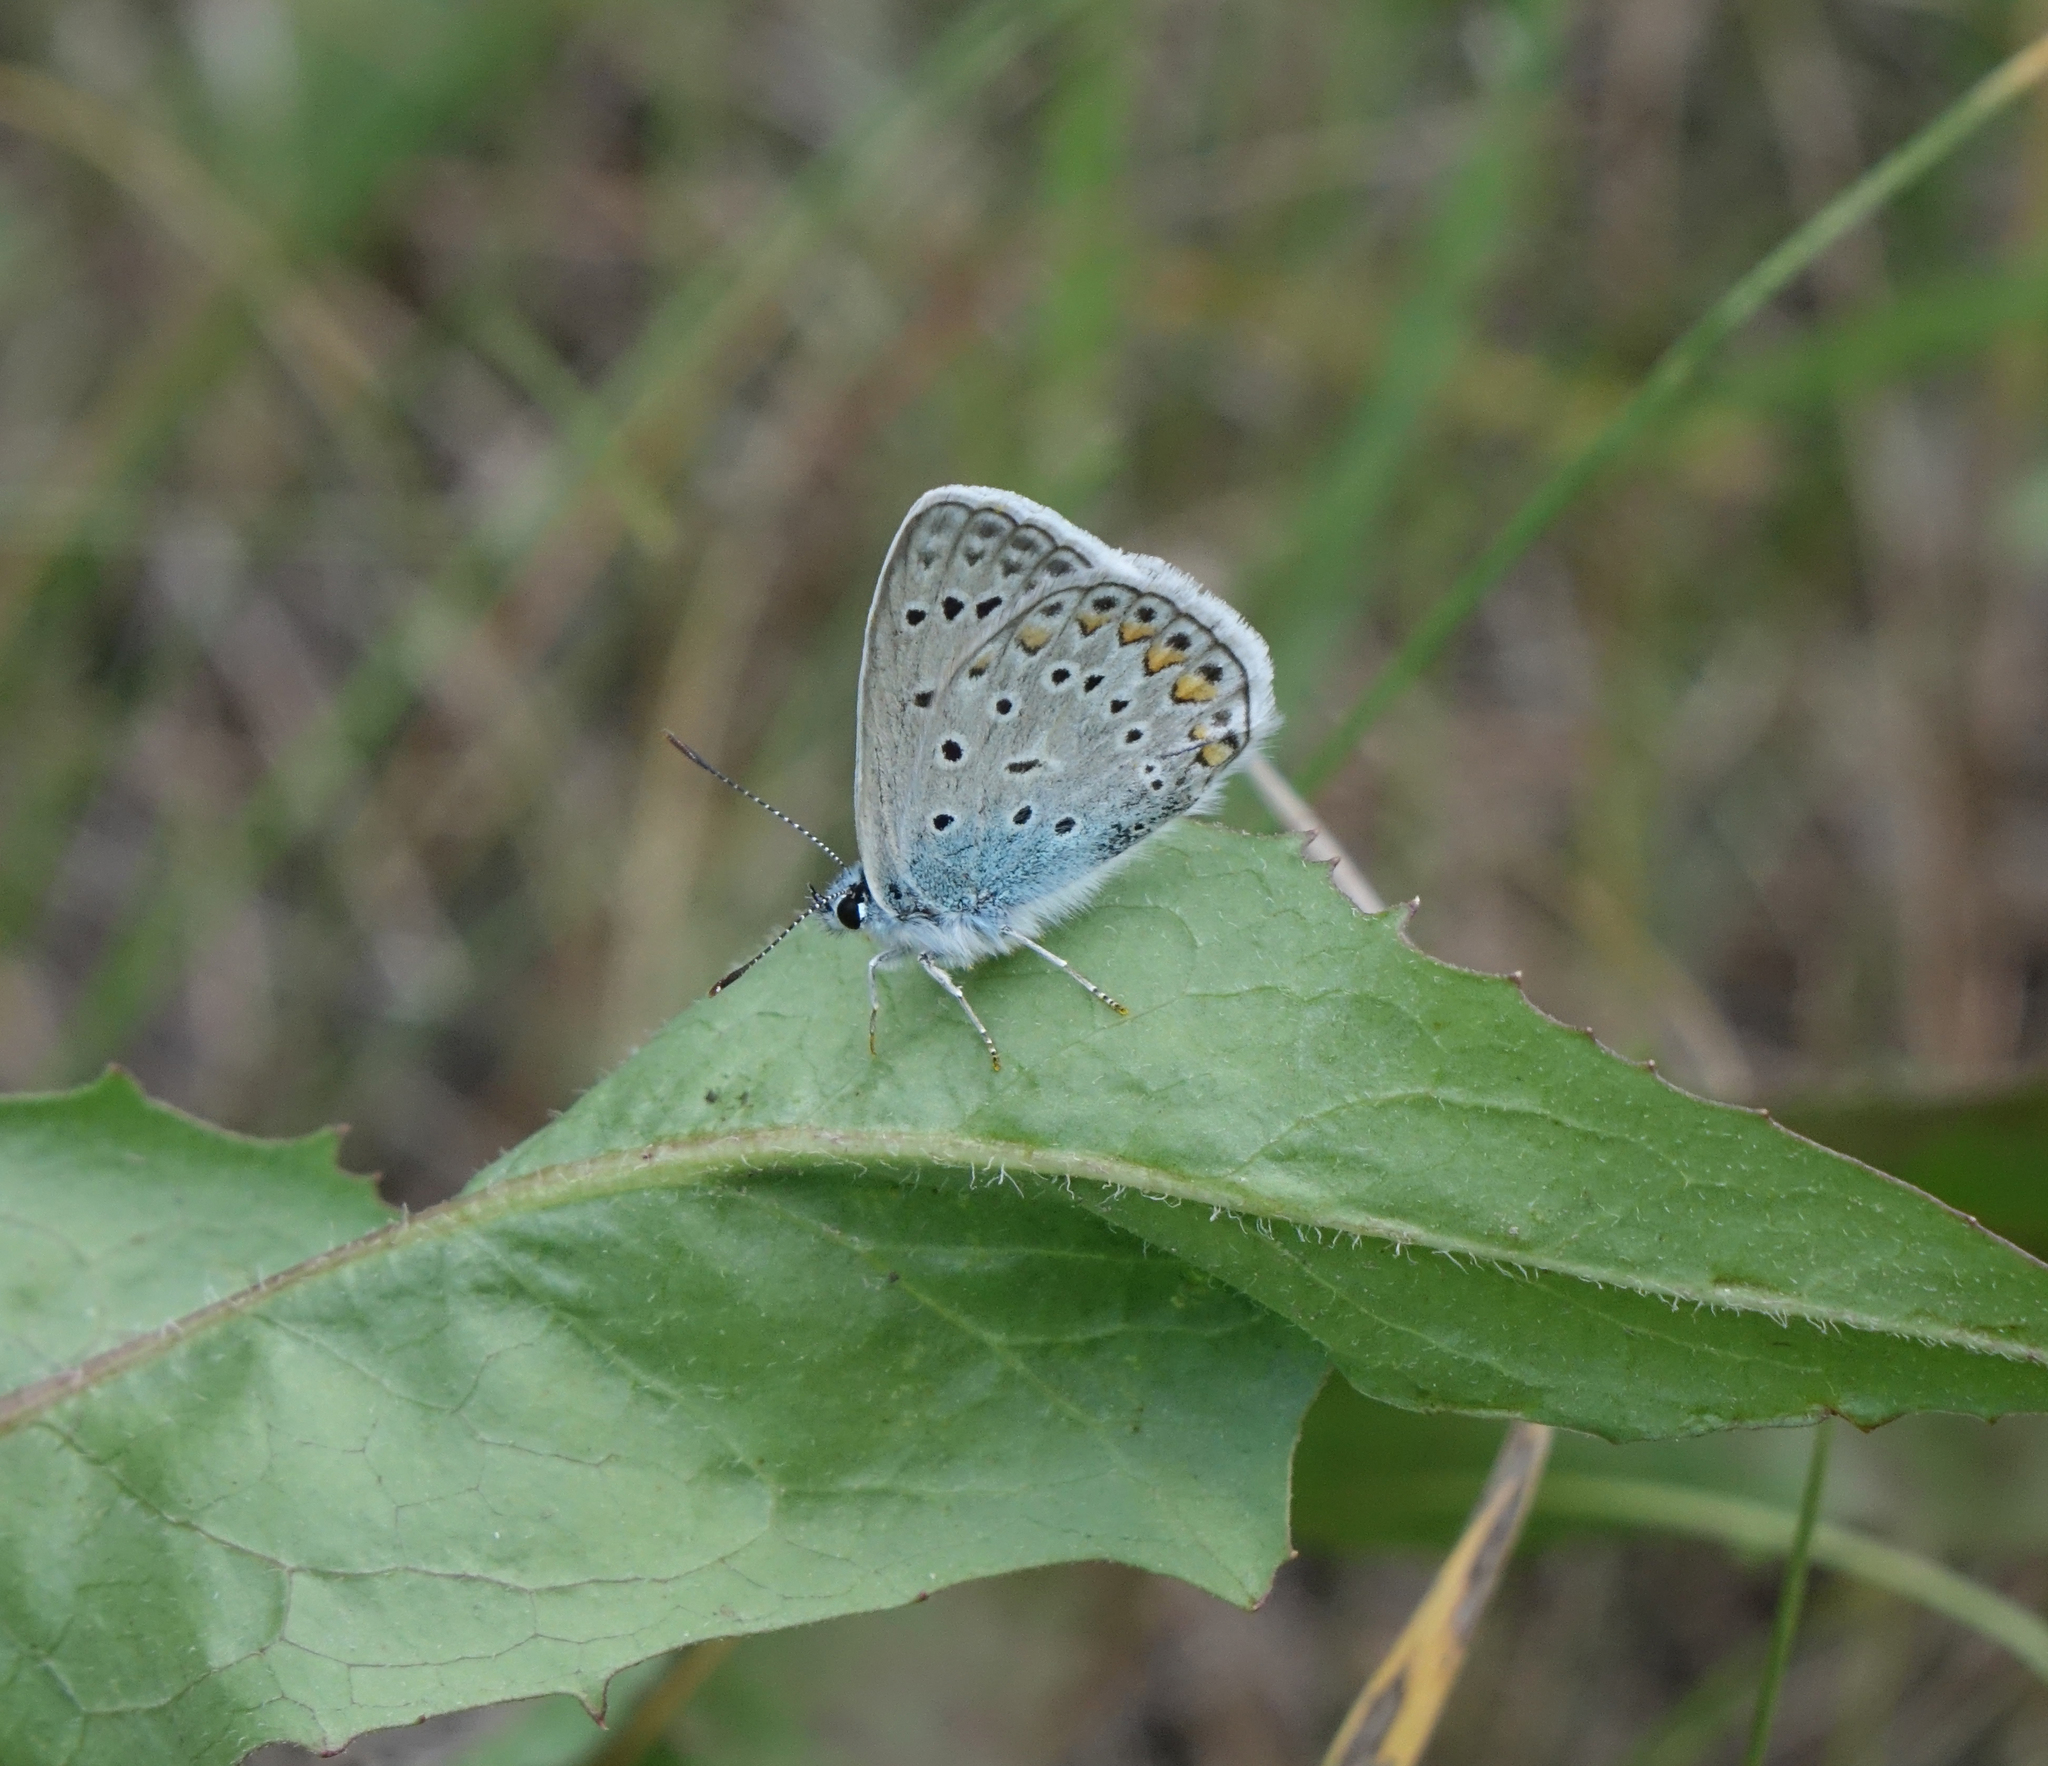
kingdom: Animalia
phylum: Arthropoda
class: Insecta
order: Lepidoptera
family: Lycaenidae
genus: Polyommatus
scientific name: Polyommatus icarus
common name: Common blue
